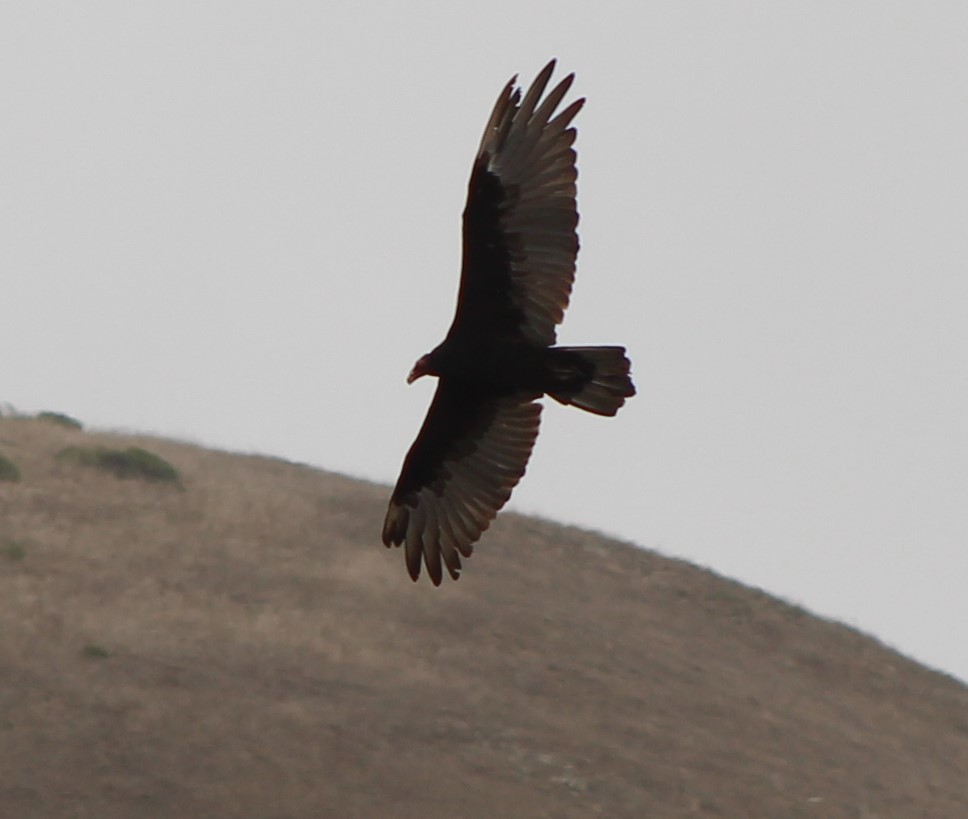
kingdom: Animalia
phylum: Chordata
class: Aves
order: Accipitriformes
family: Cathartidae
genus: Cathartes
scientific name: Cathartes aura
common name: Turkey vulture
